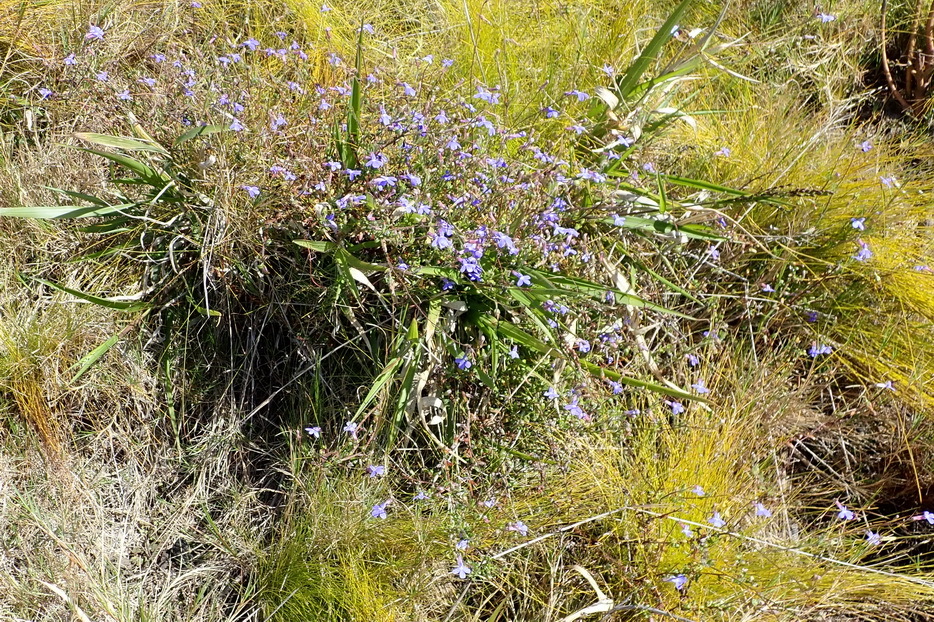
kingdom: Plantae
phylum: Tracheophyta
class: Magnoliopsida
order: Asterales
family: Campanulaceae
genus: Lobelia
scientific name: Lobelia neglecta
